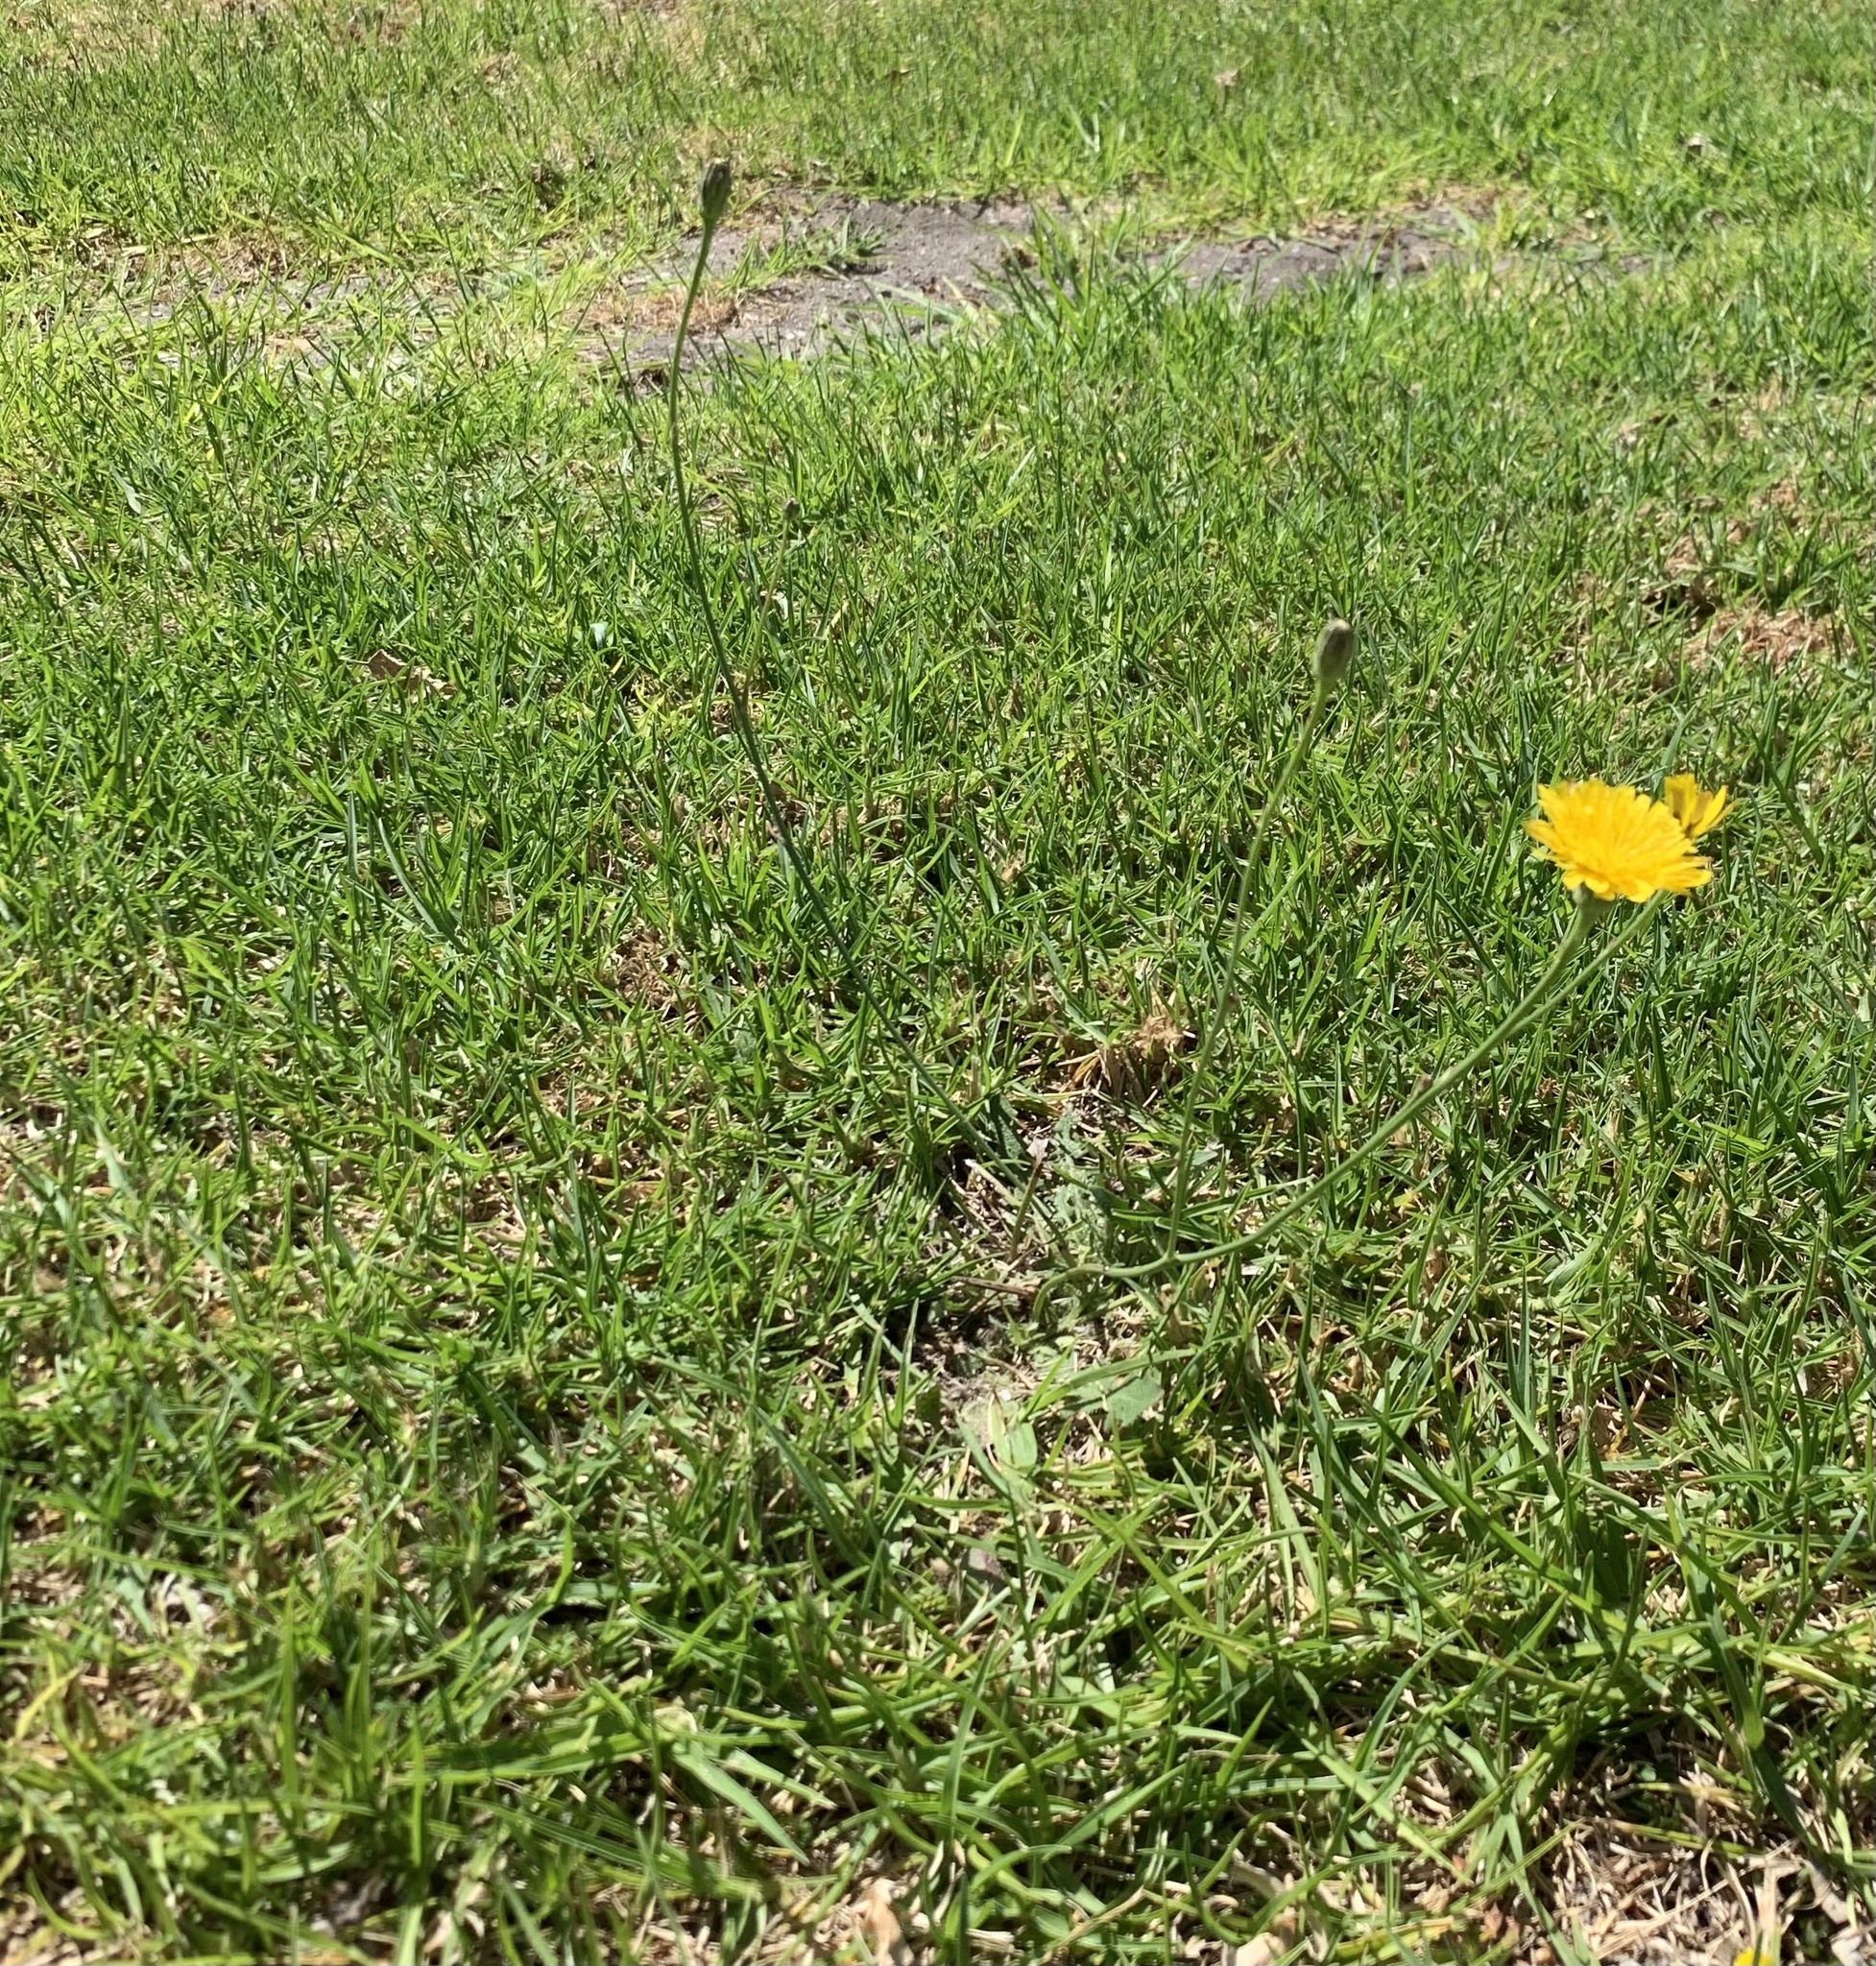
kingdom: Plantae
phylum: Tracheophyta
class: Magnoliopsida
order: Asterales
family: Asteraceae
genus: Hypochaeris
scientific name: Hypochaeris radicata
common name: Flatweed
